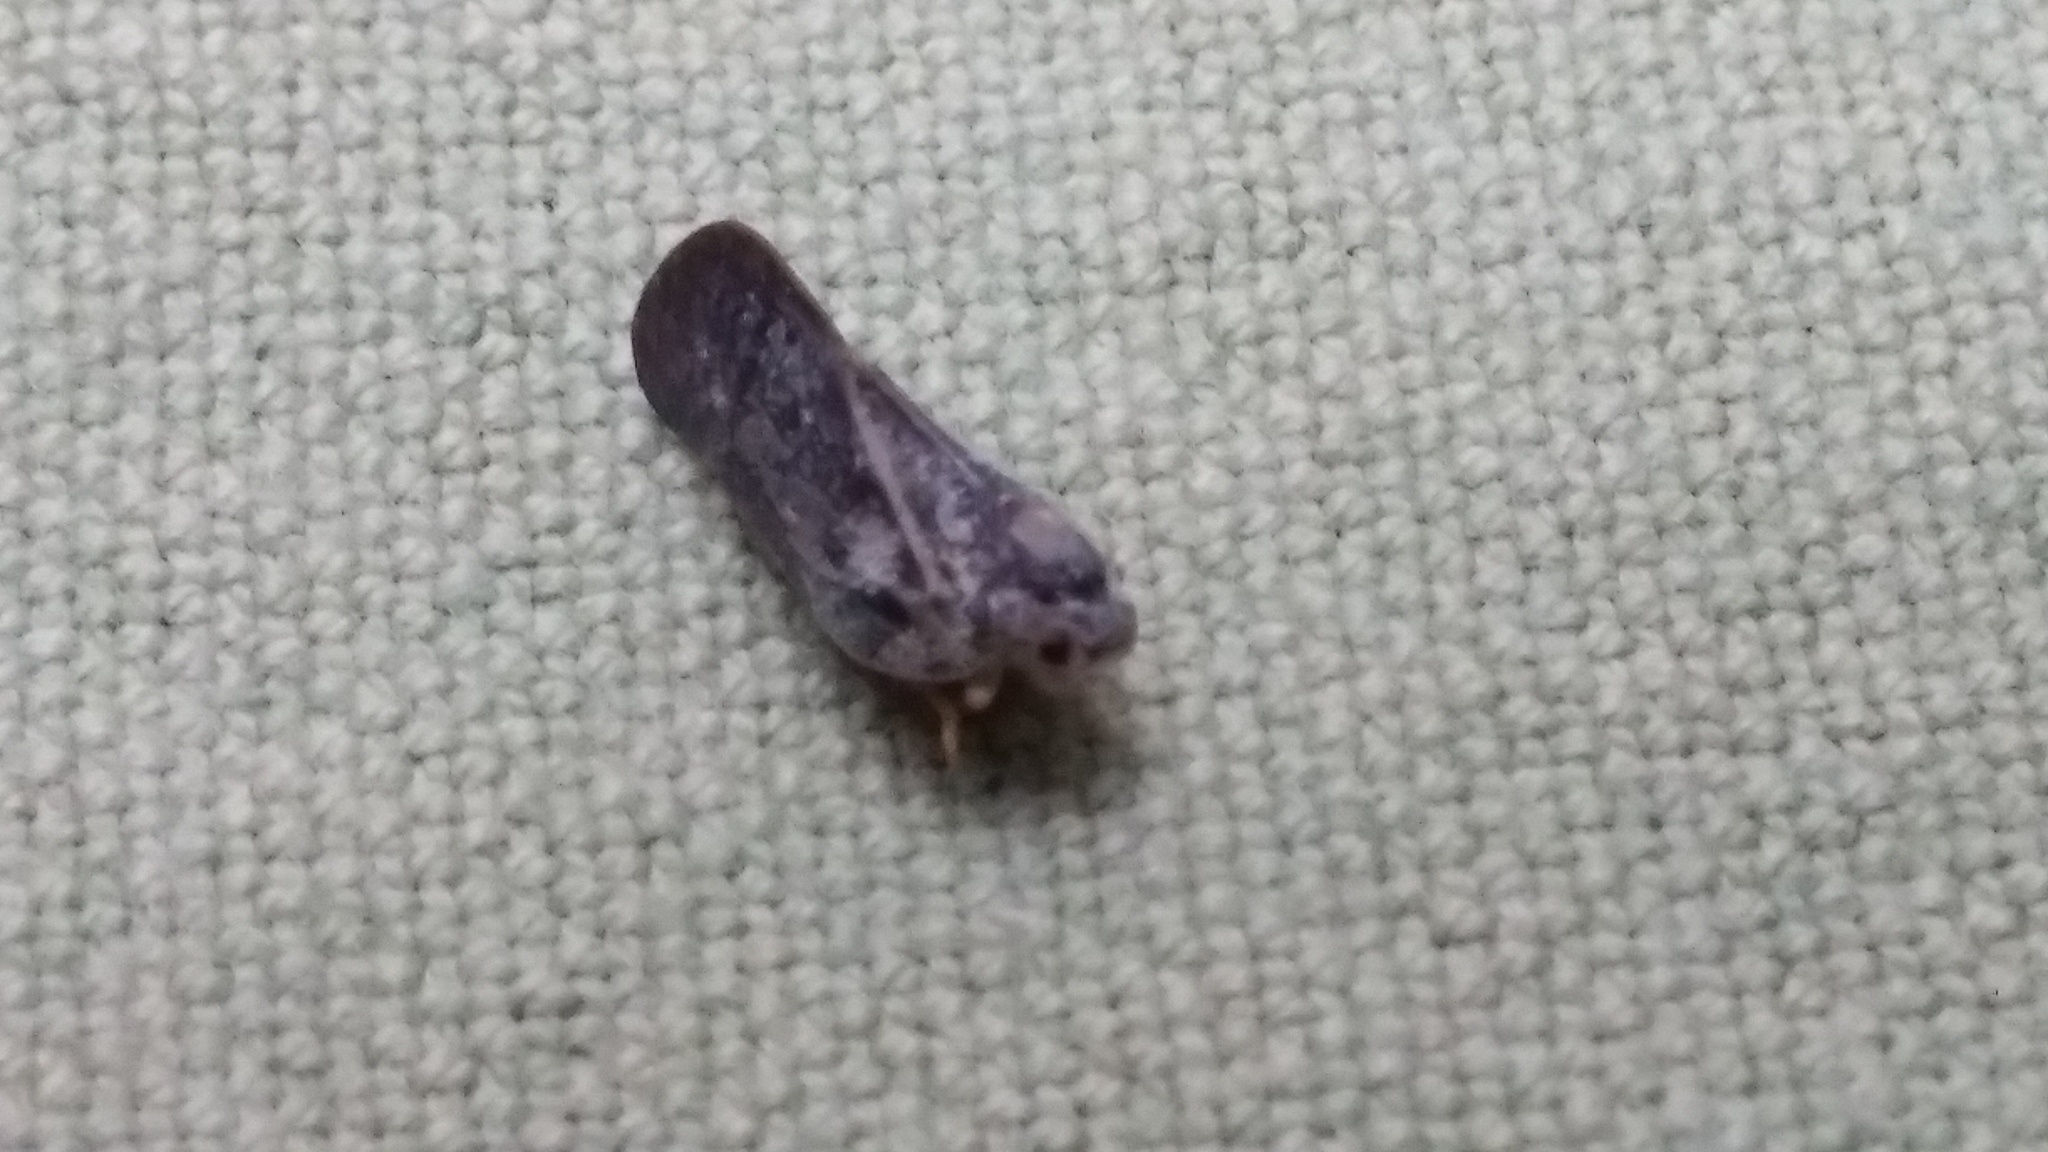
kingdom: Animalia
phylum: Arthropoda
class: Insecta
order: Hemiptera
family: Flatidae
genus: Metcalfa
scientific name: Metcalfa pruinosa
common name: Citrus flatid planthopper
